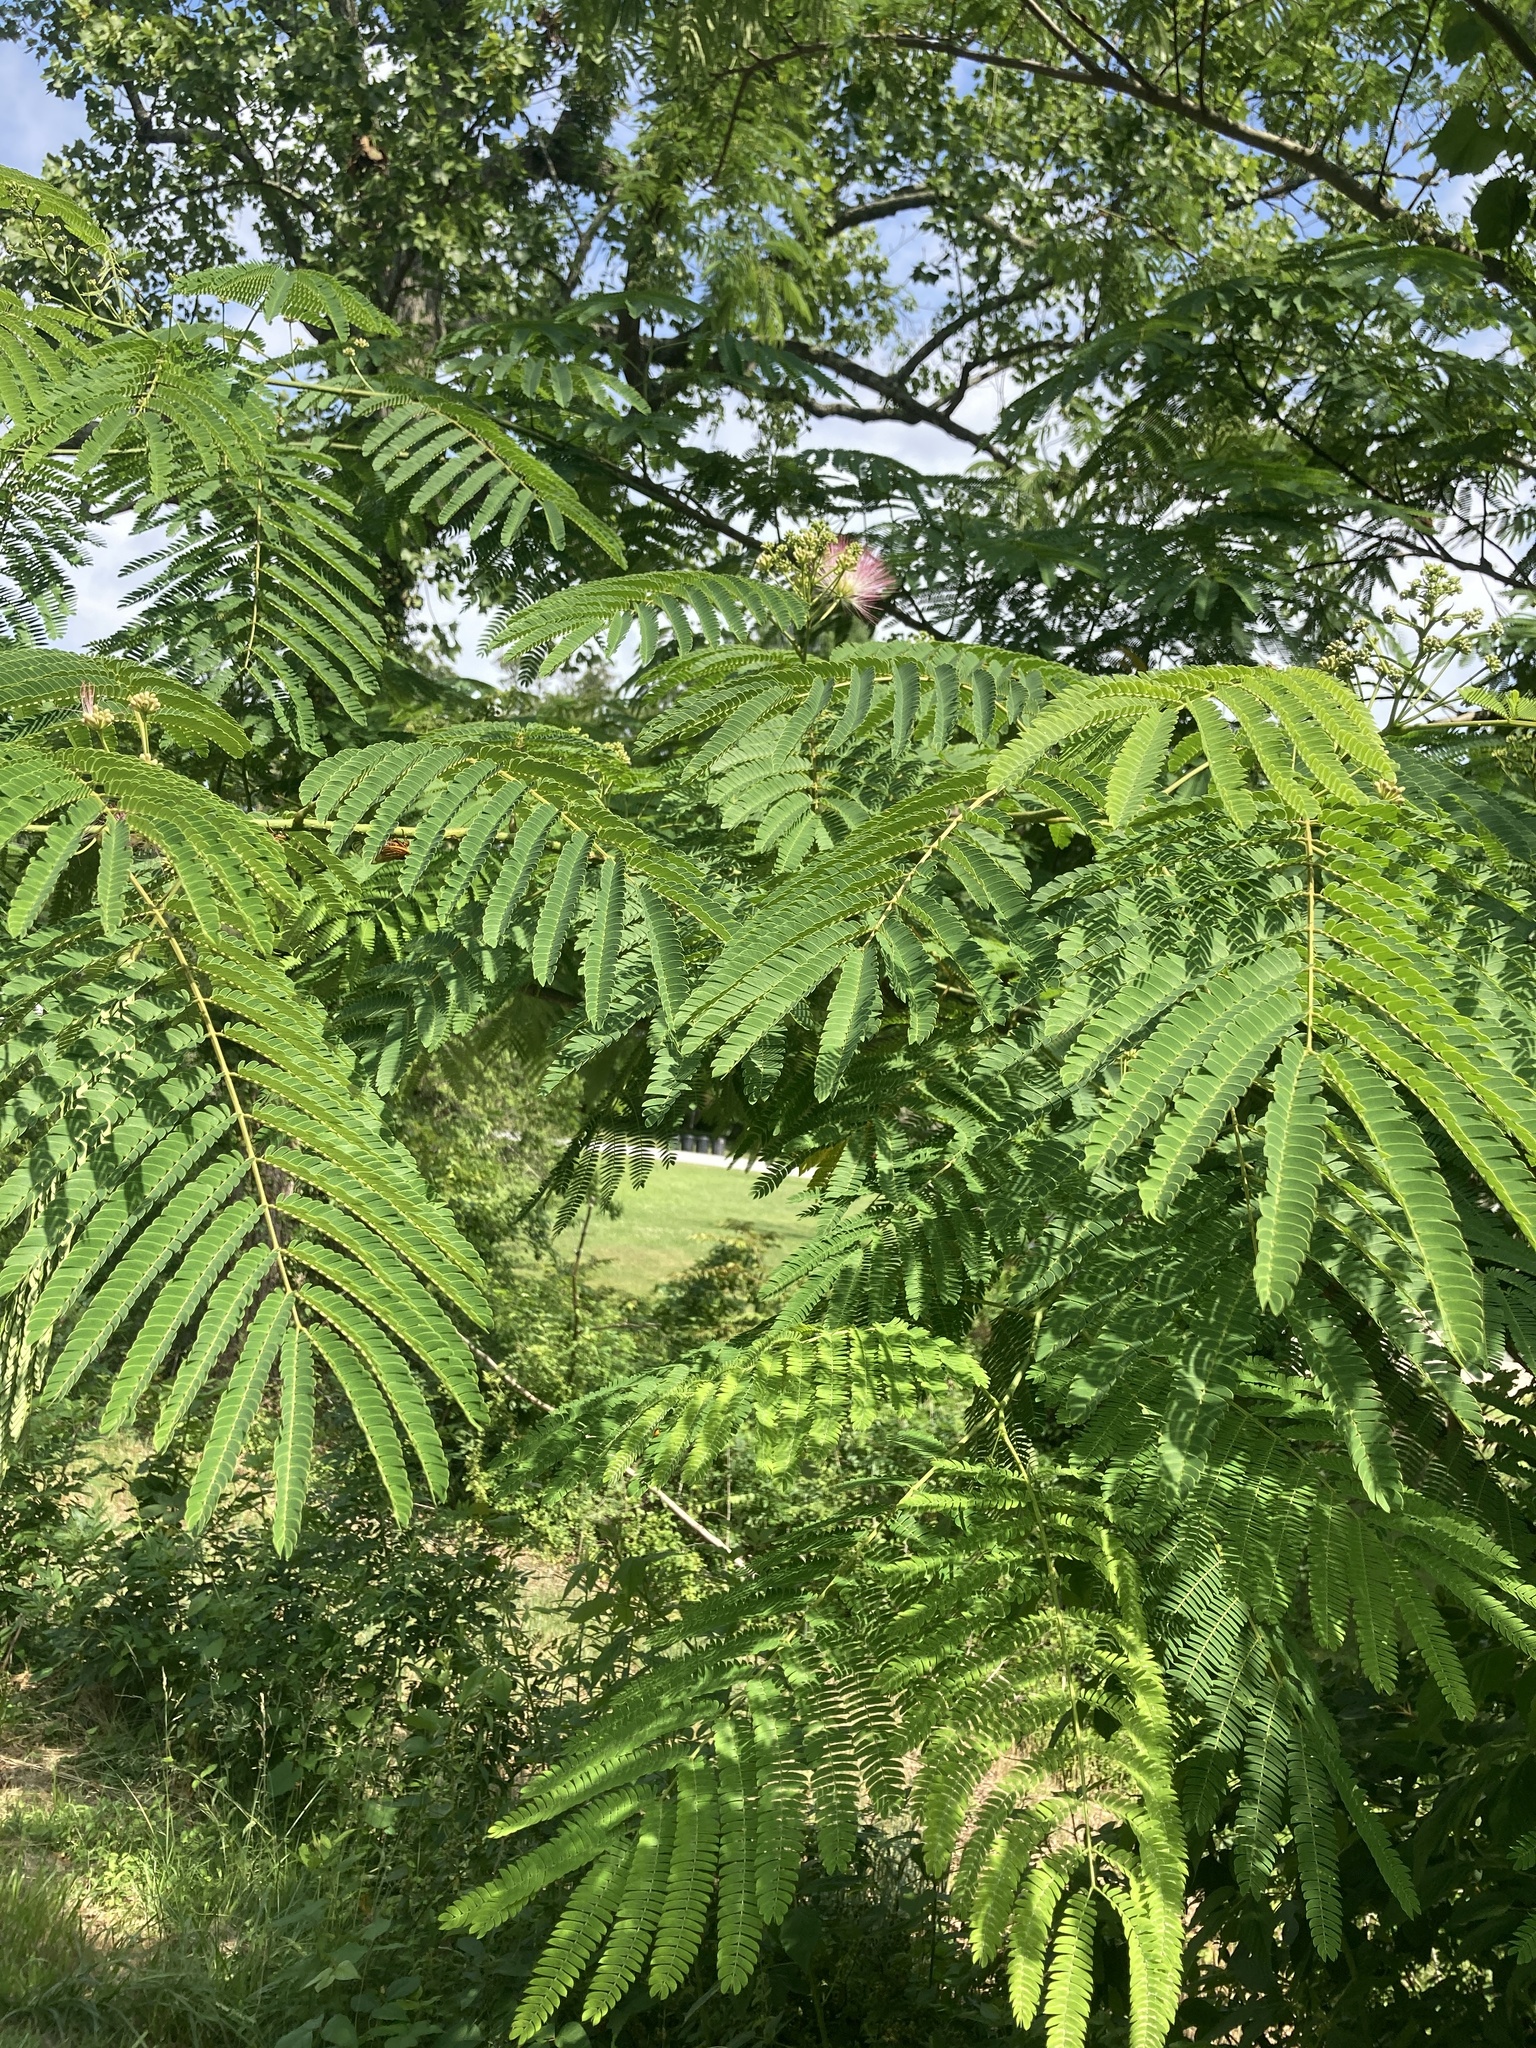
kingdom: Plantae
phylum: Tracheophyta
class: Magnoliopsida
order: Fabales
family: Fabaceae
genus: Albizia
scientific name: Albizia julibrissin
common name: Silktree
